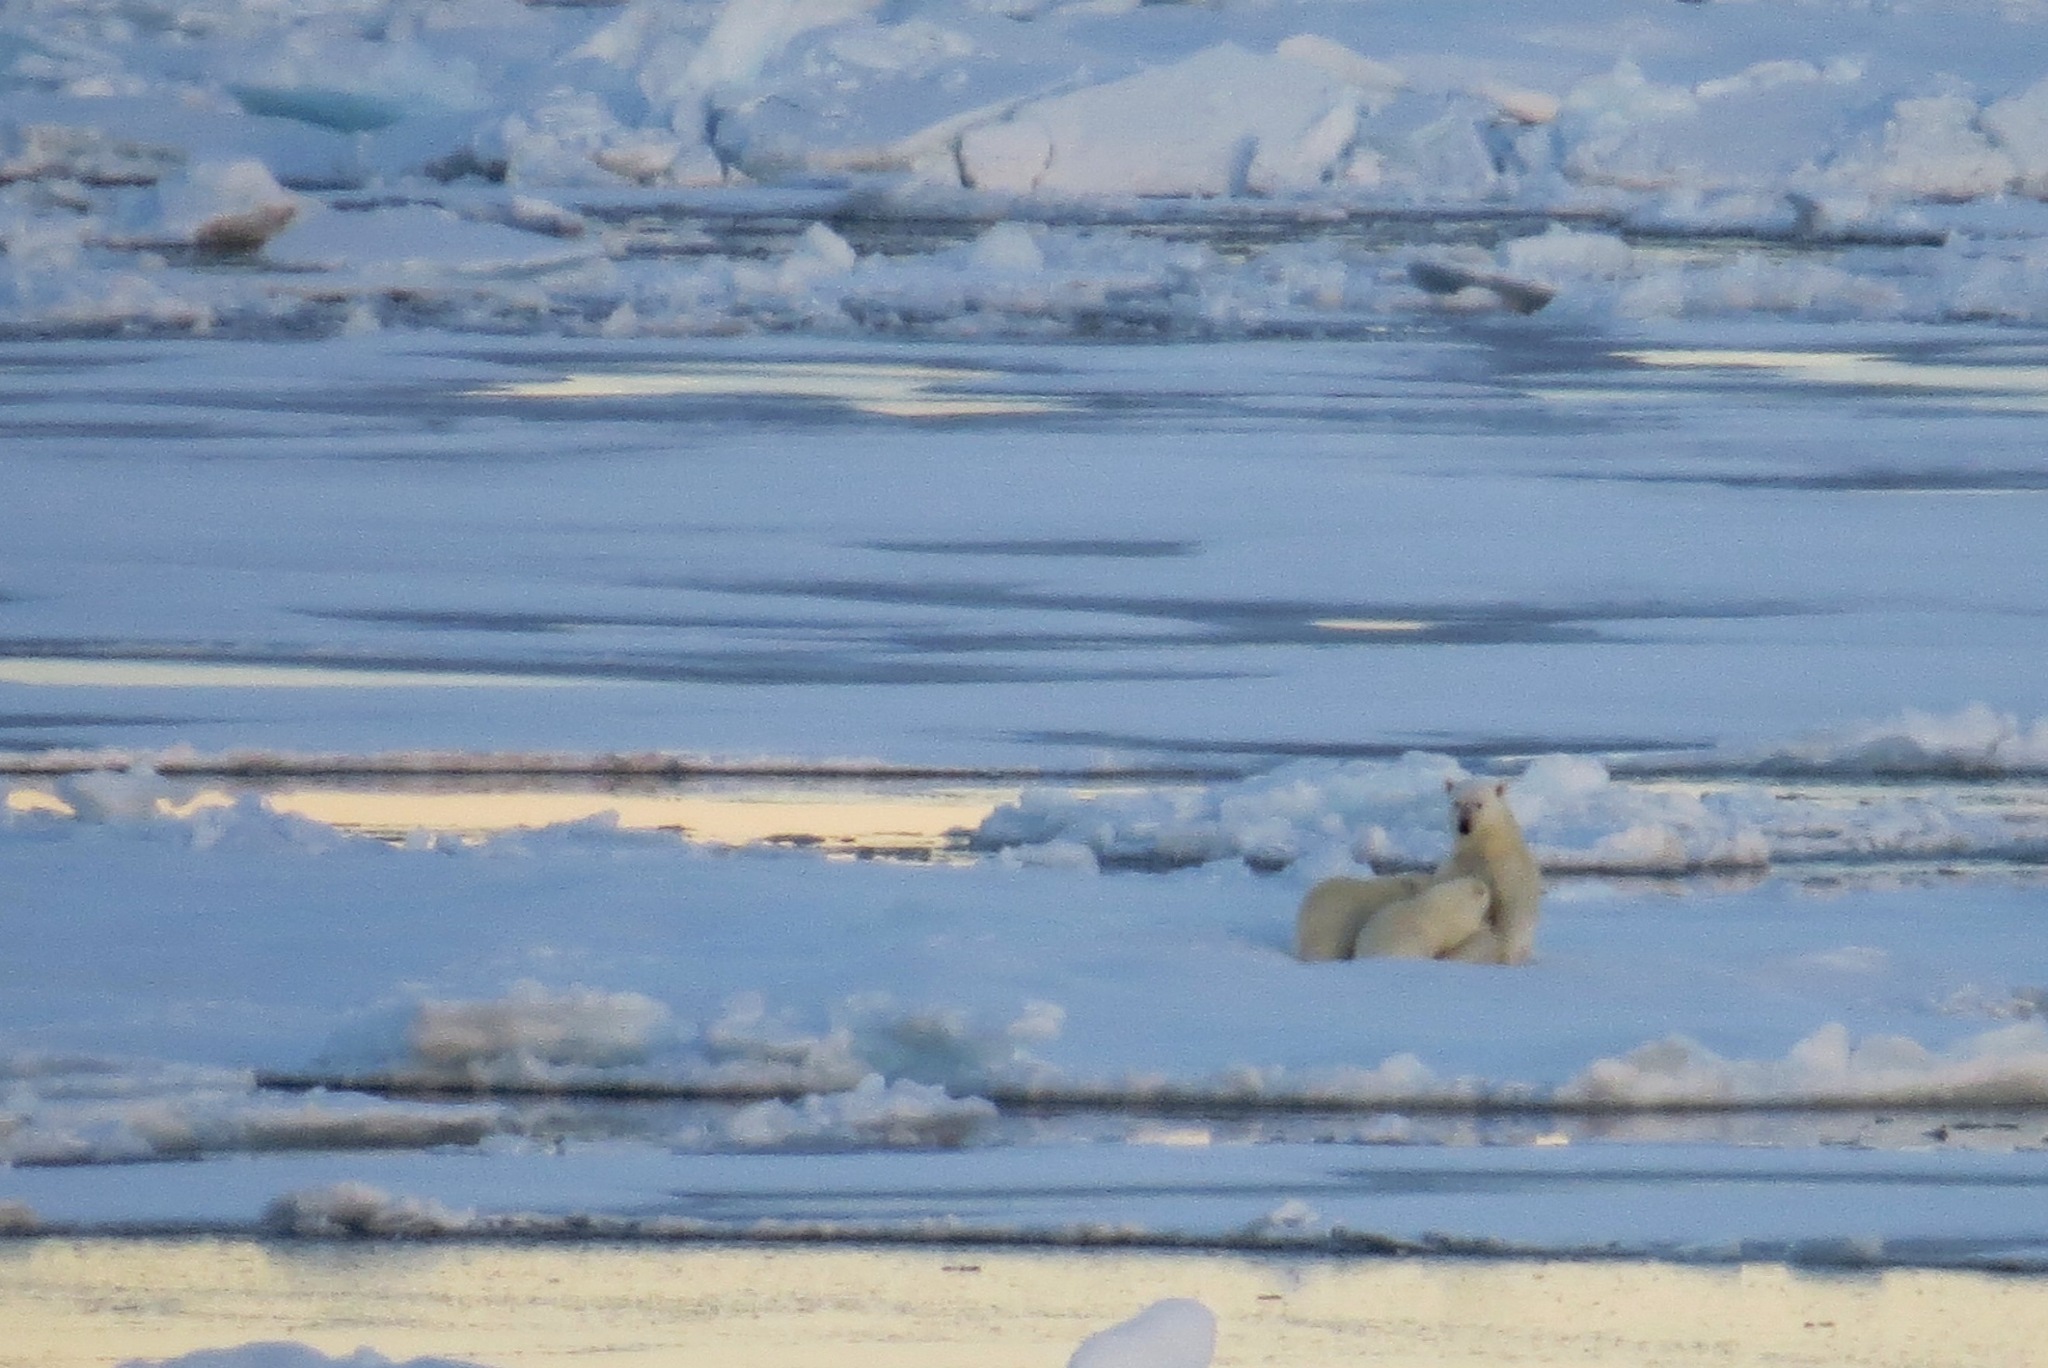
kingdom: Animalia
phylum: Chordata
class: Mammalia
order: Carnivora
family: Ursidae
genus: Ursus
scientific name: Ursus maritimus
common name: Polar bear
